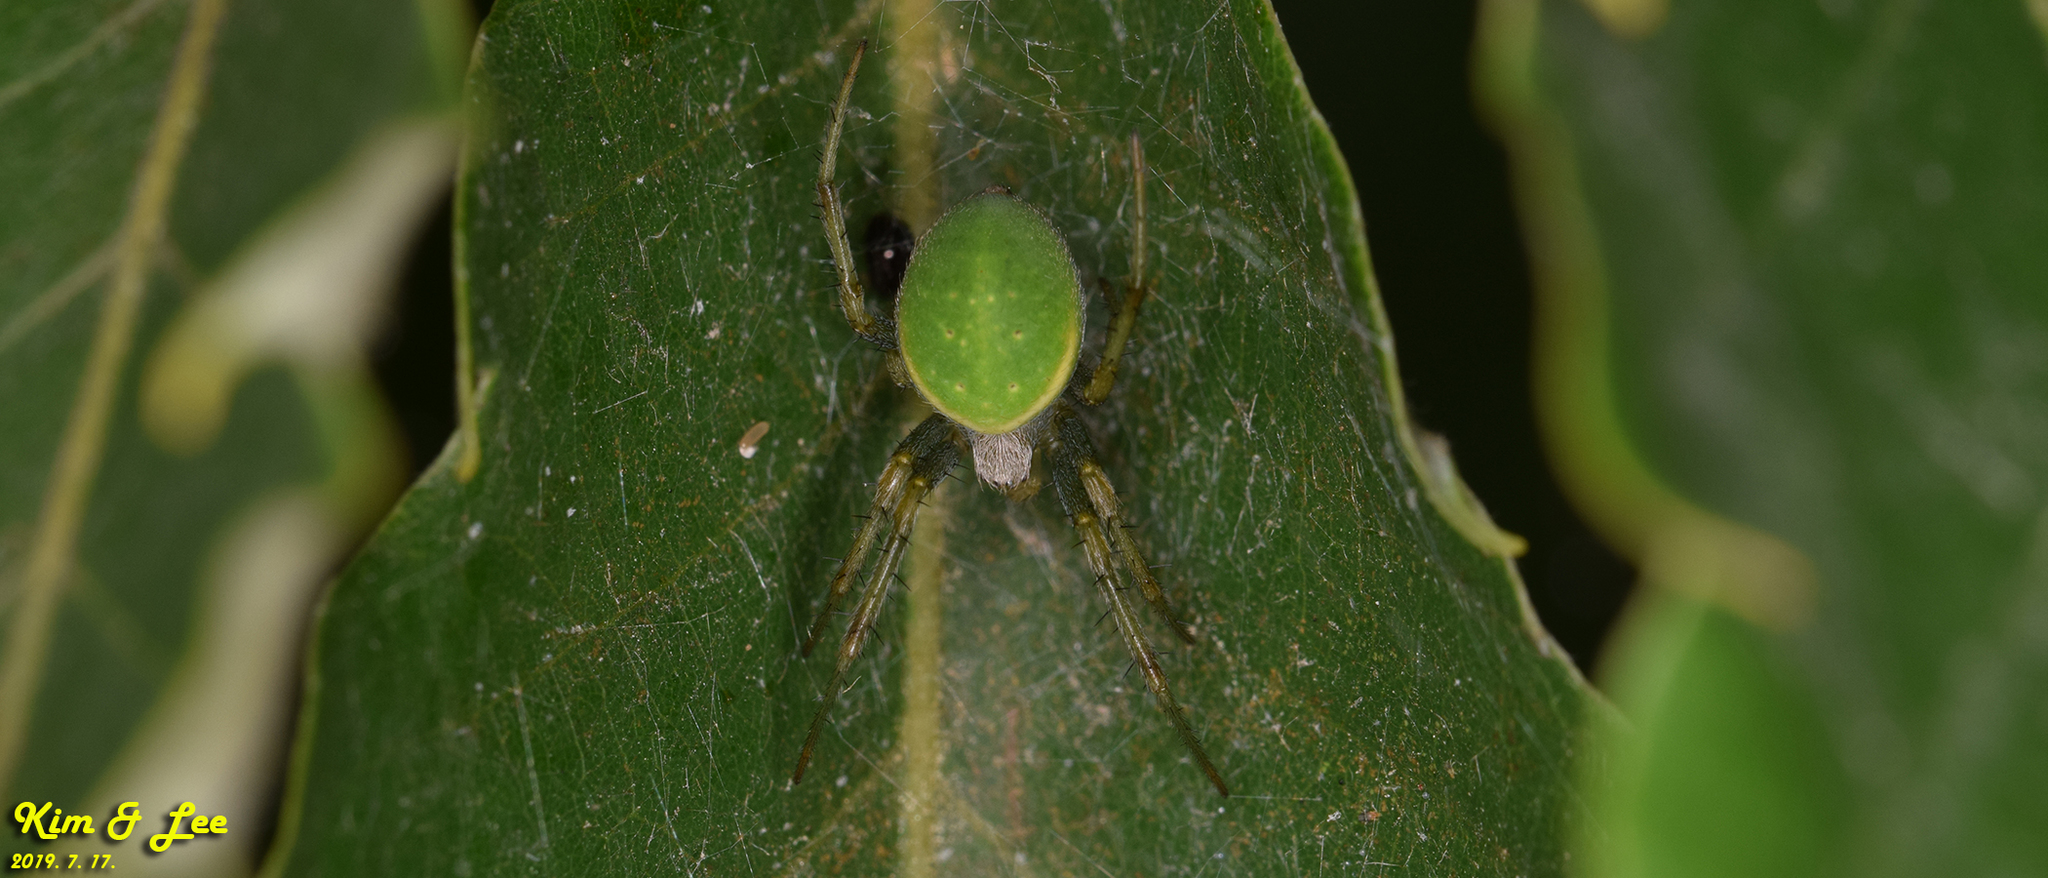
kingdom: Animalia
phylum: Arthropoda
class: Arachnida
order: Araneae
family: Araneidae
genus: Neoscona
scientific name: Neoscona scylloides
